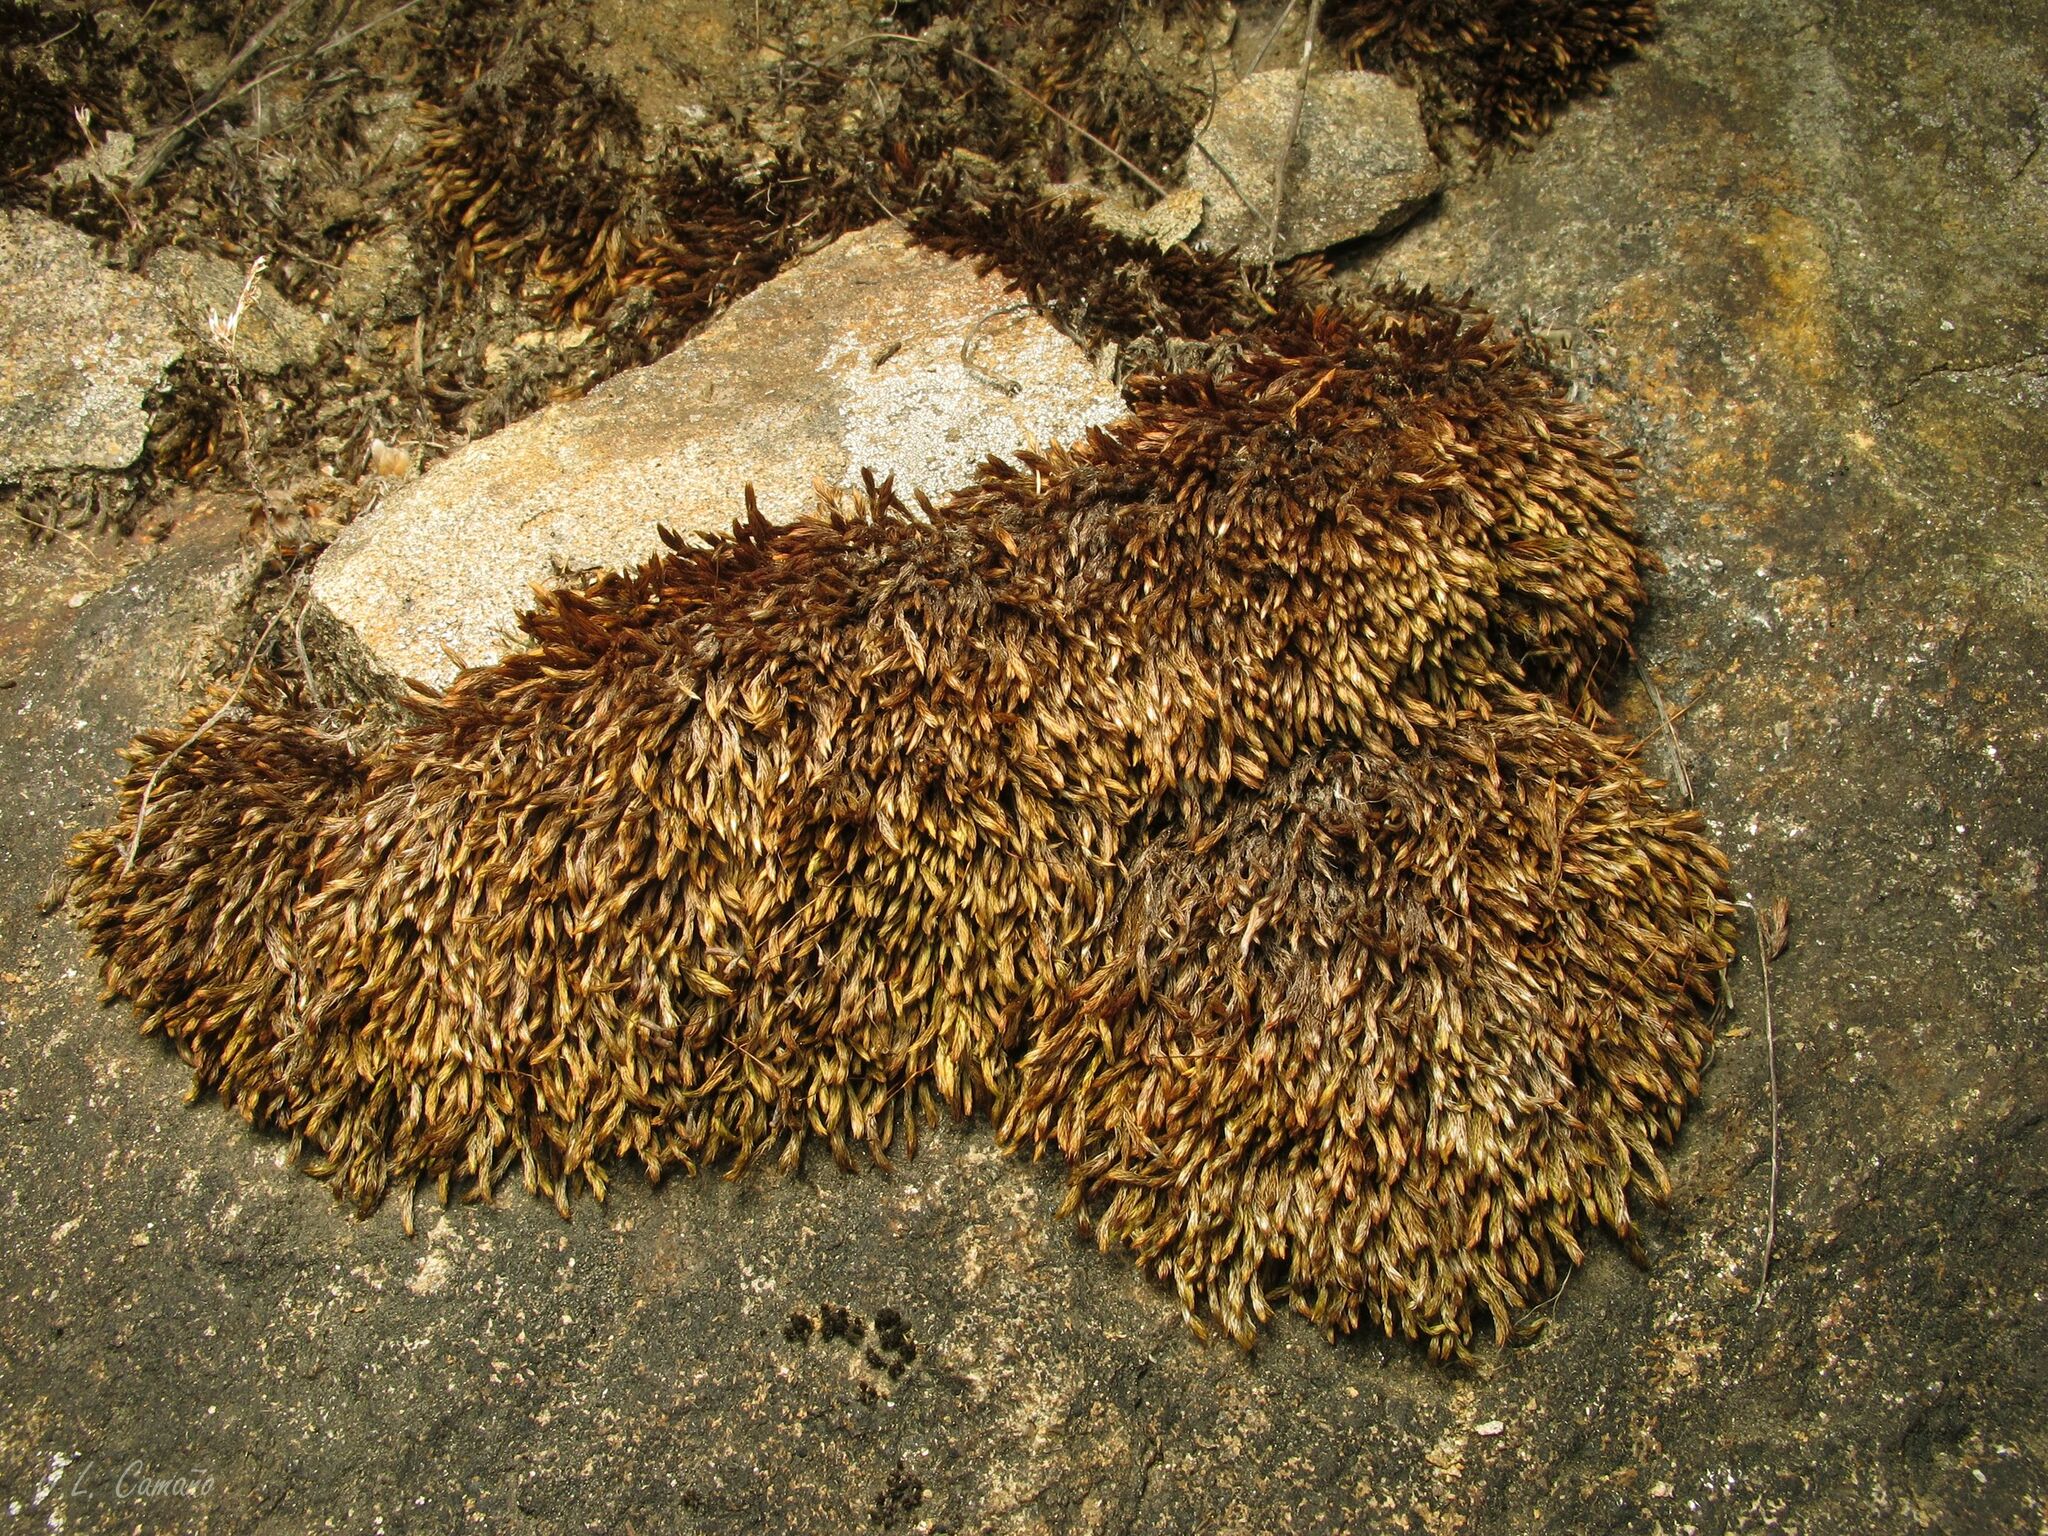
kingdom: Plantae
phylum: Bryophyta
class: Bryopsida
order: Bryales
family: Bryaceae
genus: Imbribryum
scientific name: Imbribryum alpinum
